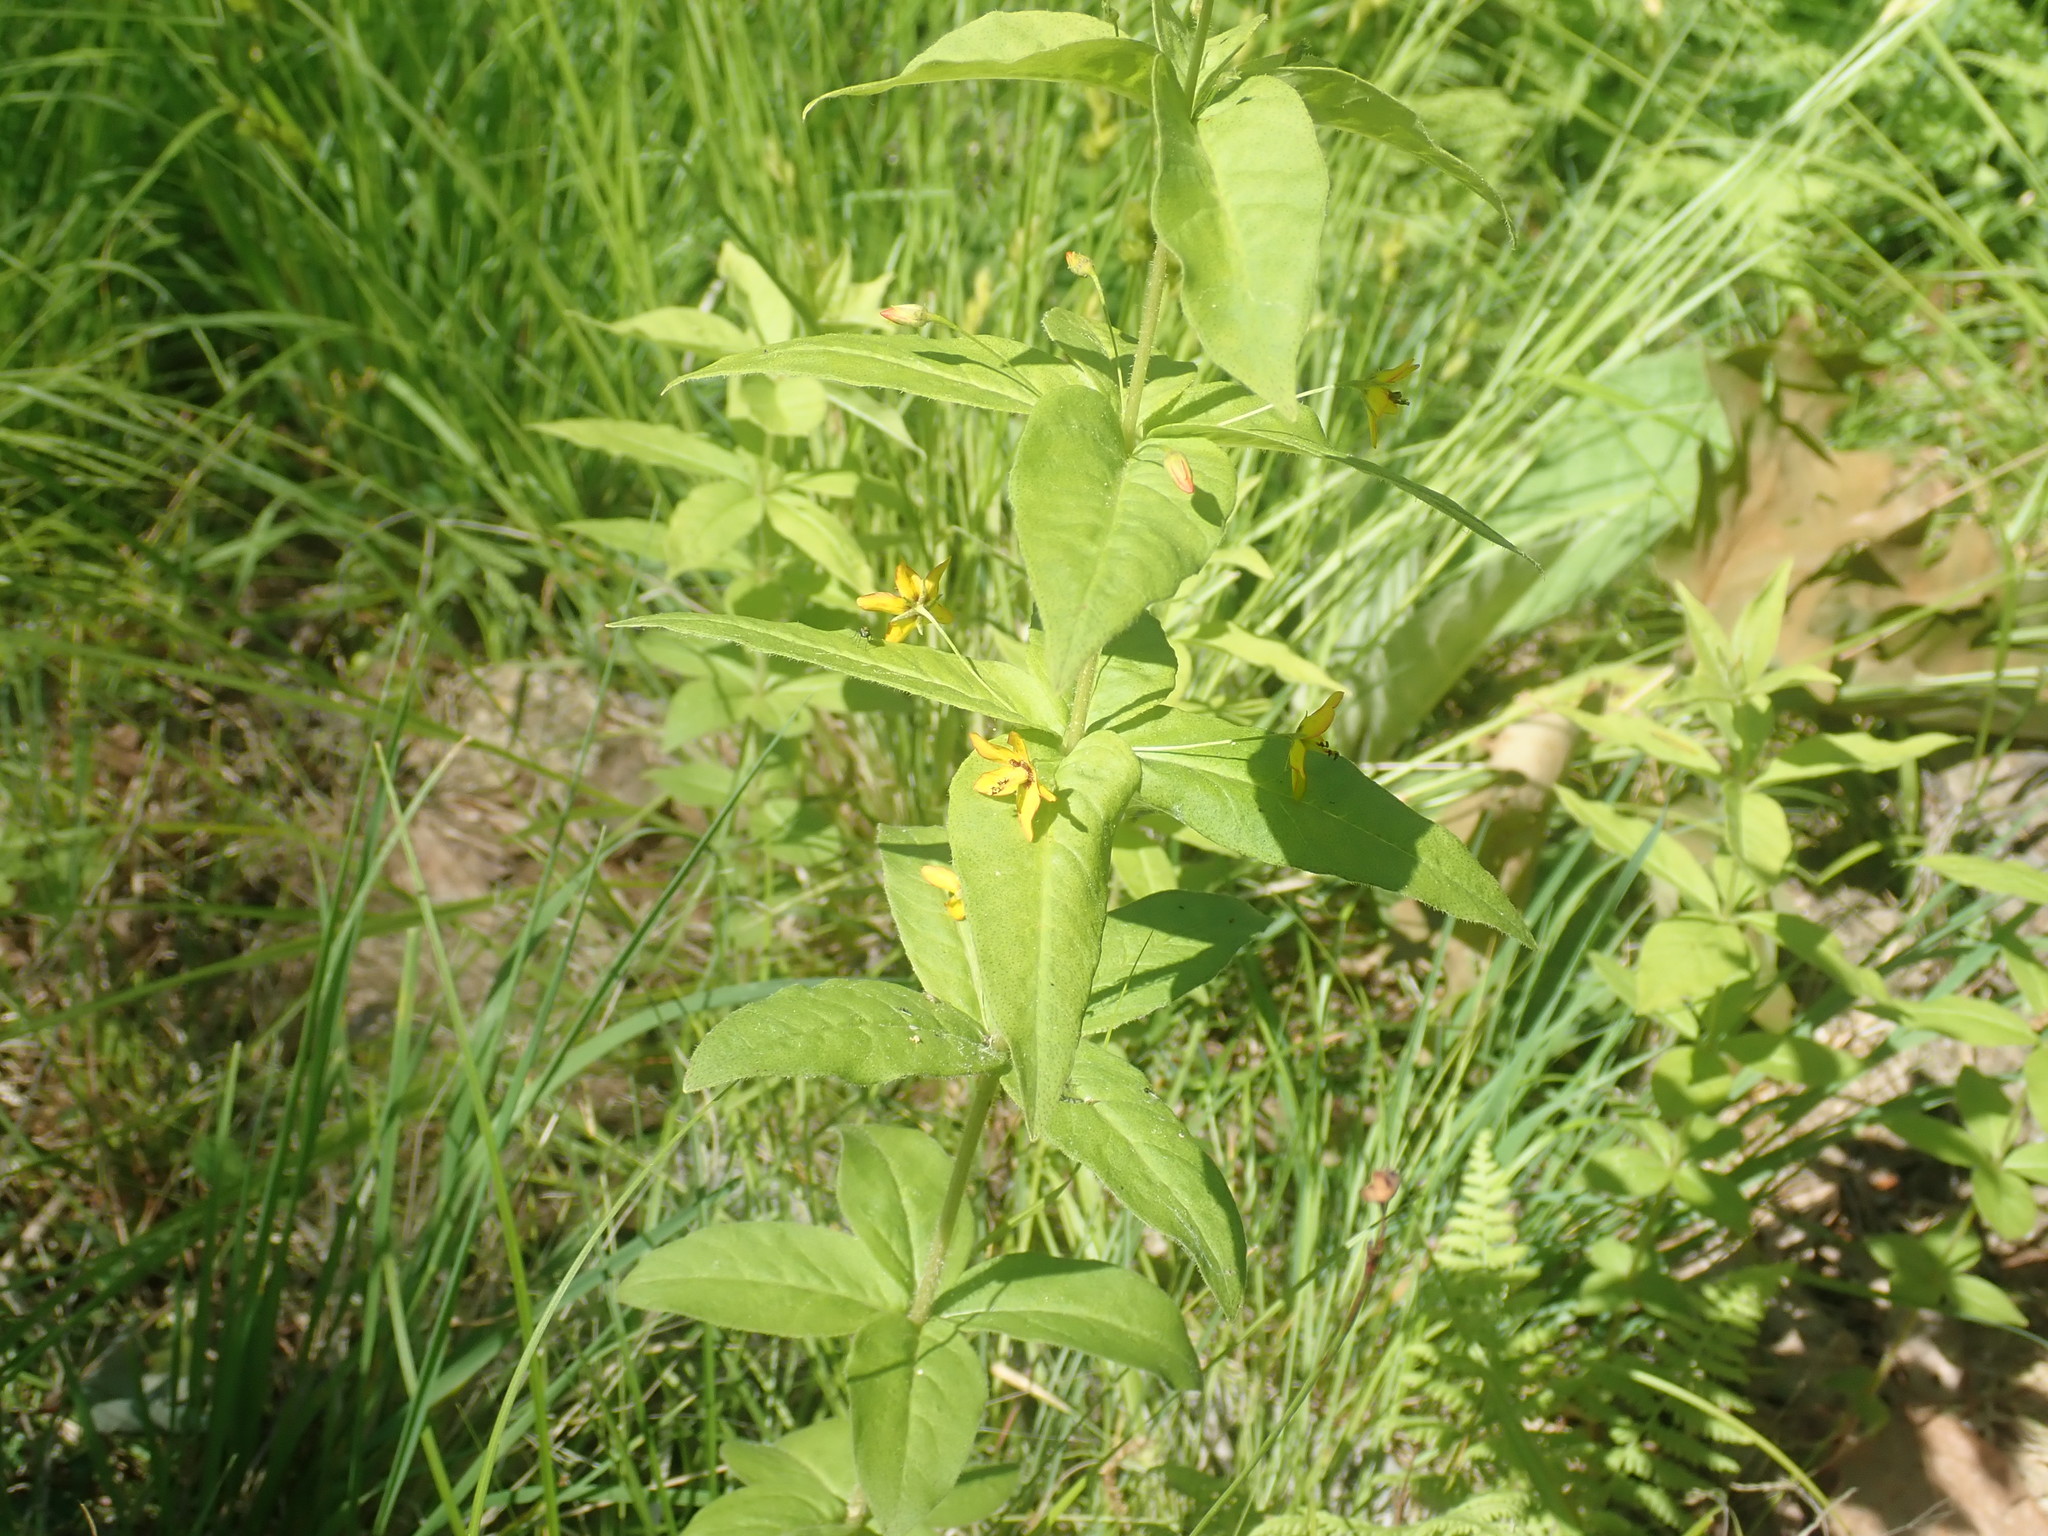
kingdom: Plantae
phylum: Tracheophyta
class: Magnoliopsida
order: Ericales
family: Primulaceae
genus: Lysimachia
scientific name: Lysimachia quadrifolia
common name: Whorled loosestrife
